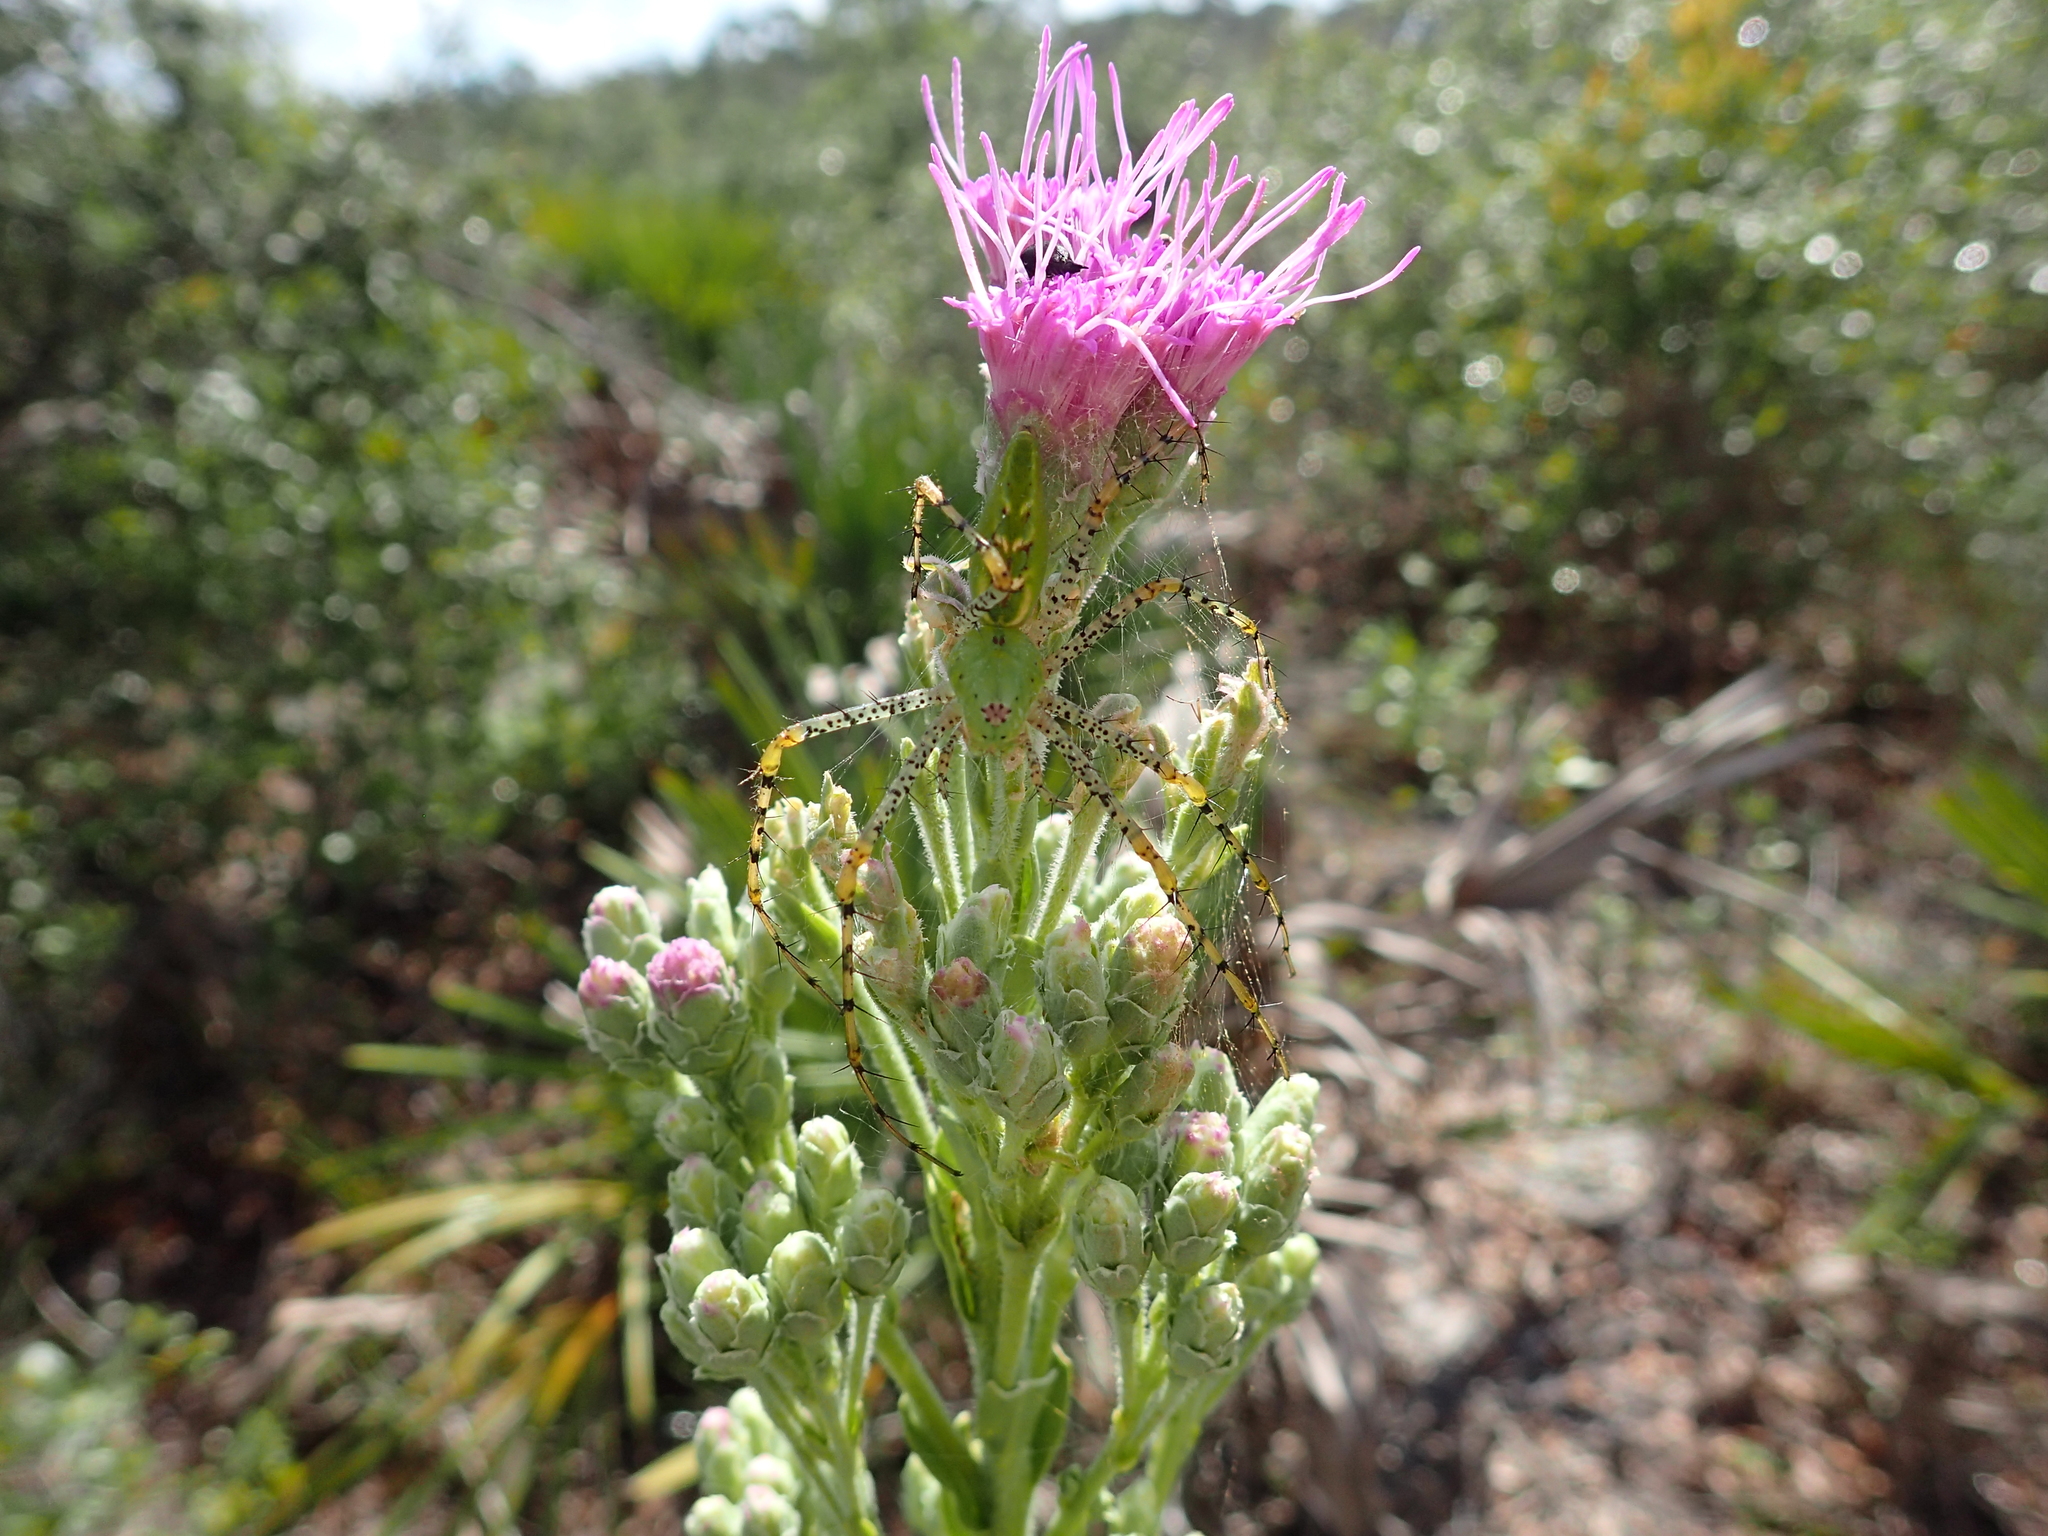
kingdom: Animalia
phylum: Arthropoda
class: Arachnida
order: Araneae
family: Oxyopidae
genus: Peucetia
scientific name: Peucetia viridans
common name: Lynx spiders
